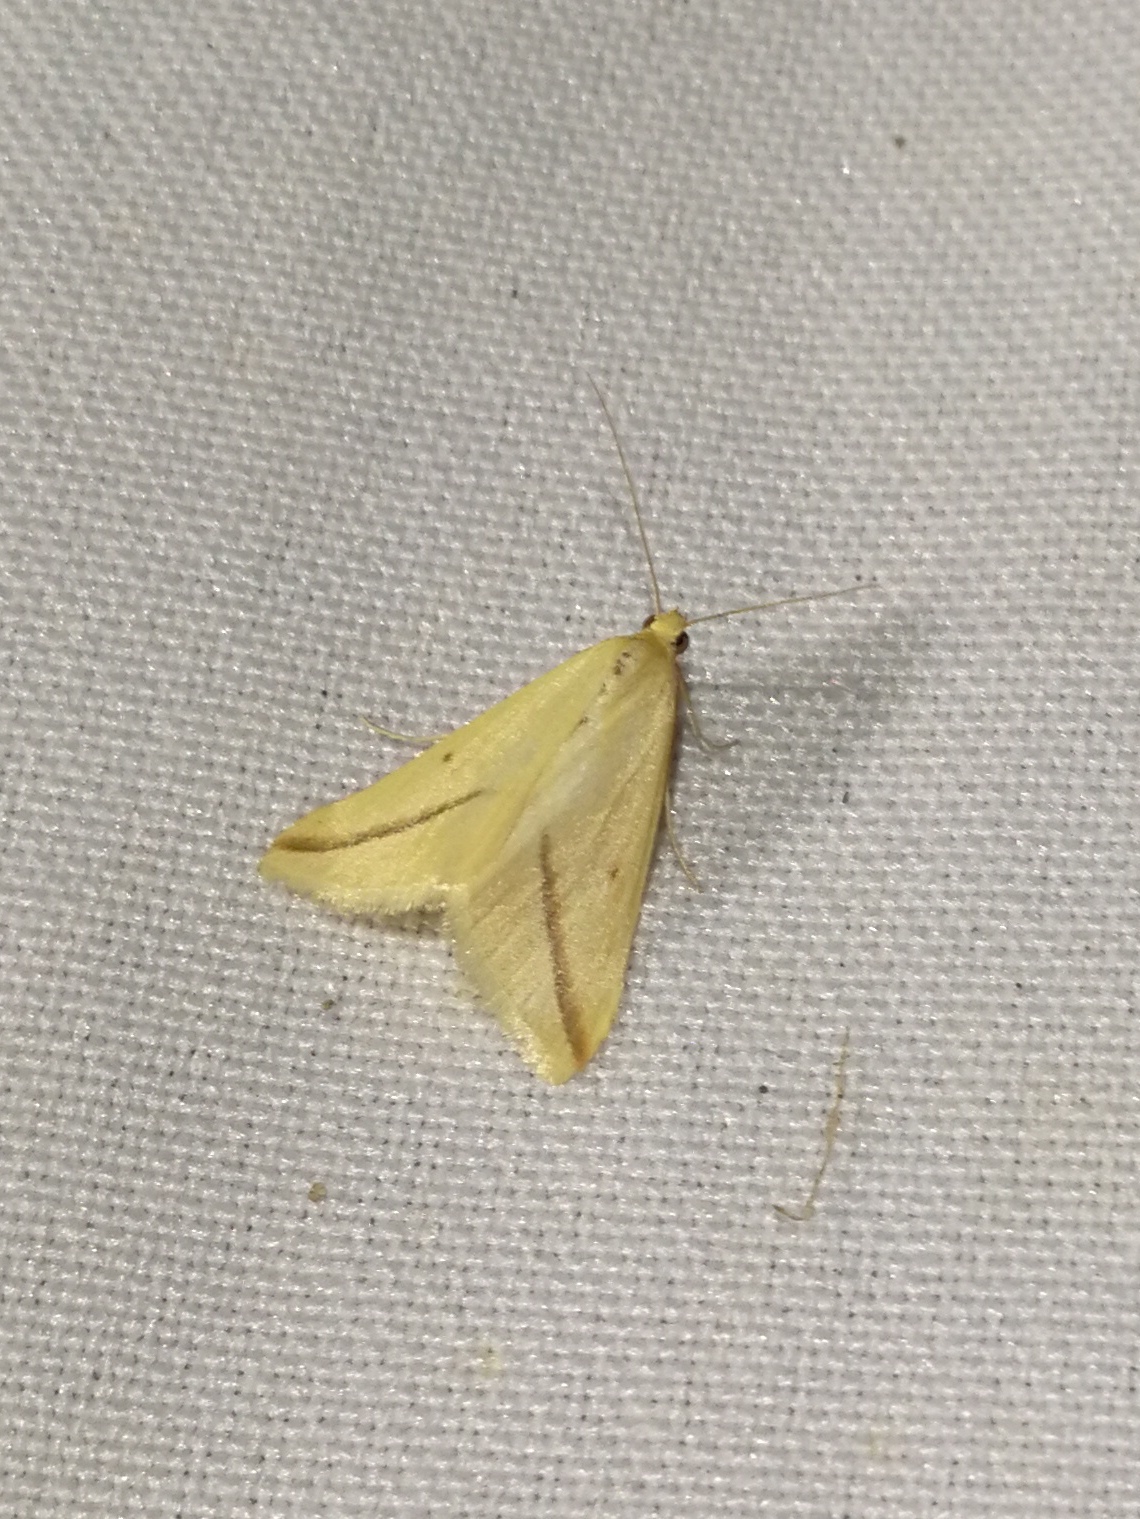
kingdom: Animalia
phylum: Arthropoda
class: Insecta
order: Lepidoptera
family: Geometridae
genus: Rhodometra
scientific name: Rhodometra sacraria
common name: Vestal
